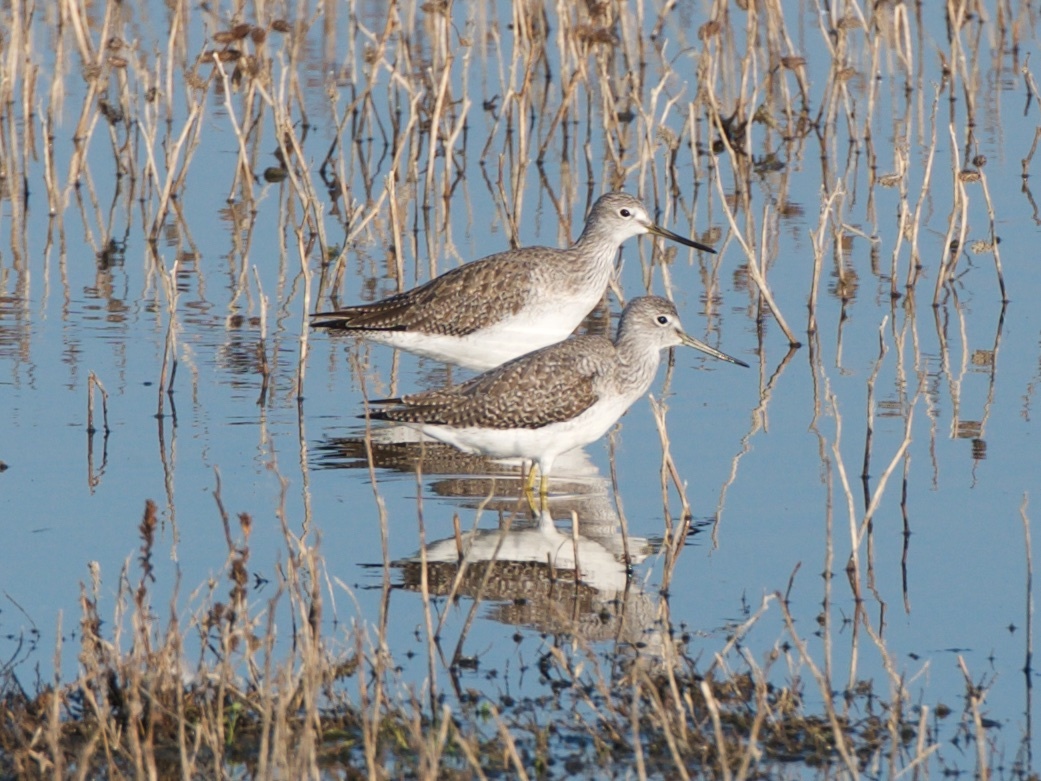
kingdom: Animalia
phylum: Chordata
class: Aves
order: Charadriiformes
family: Scolopacidae
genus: Tringa
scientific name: Tringa melanoleuca
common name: Greater yellowlegs
